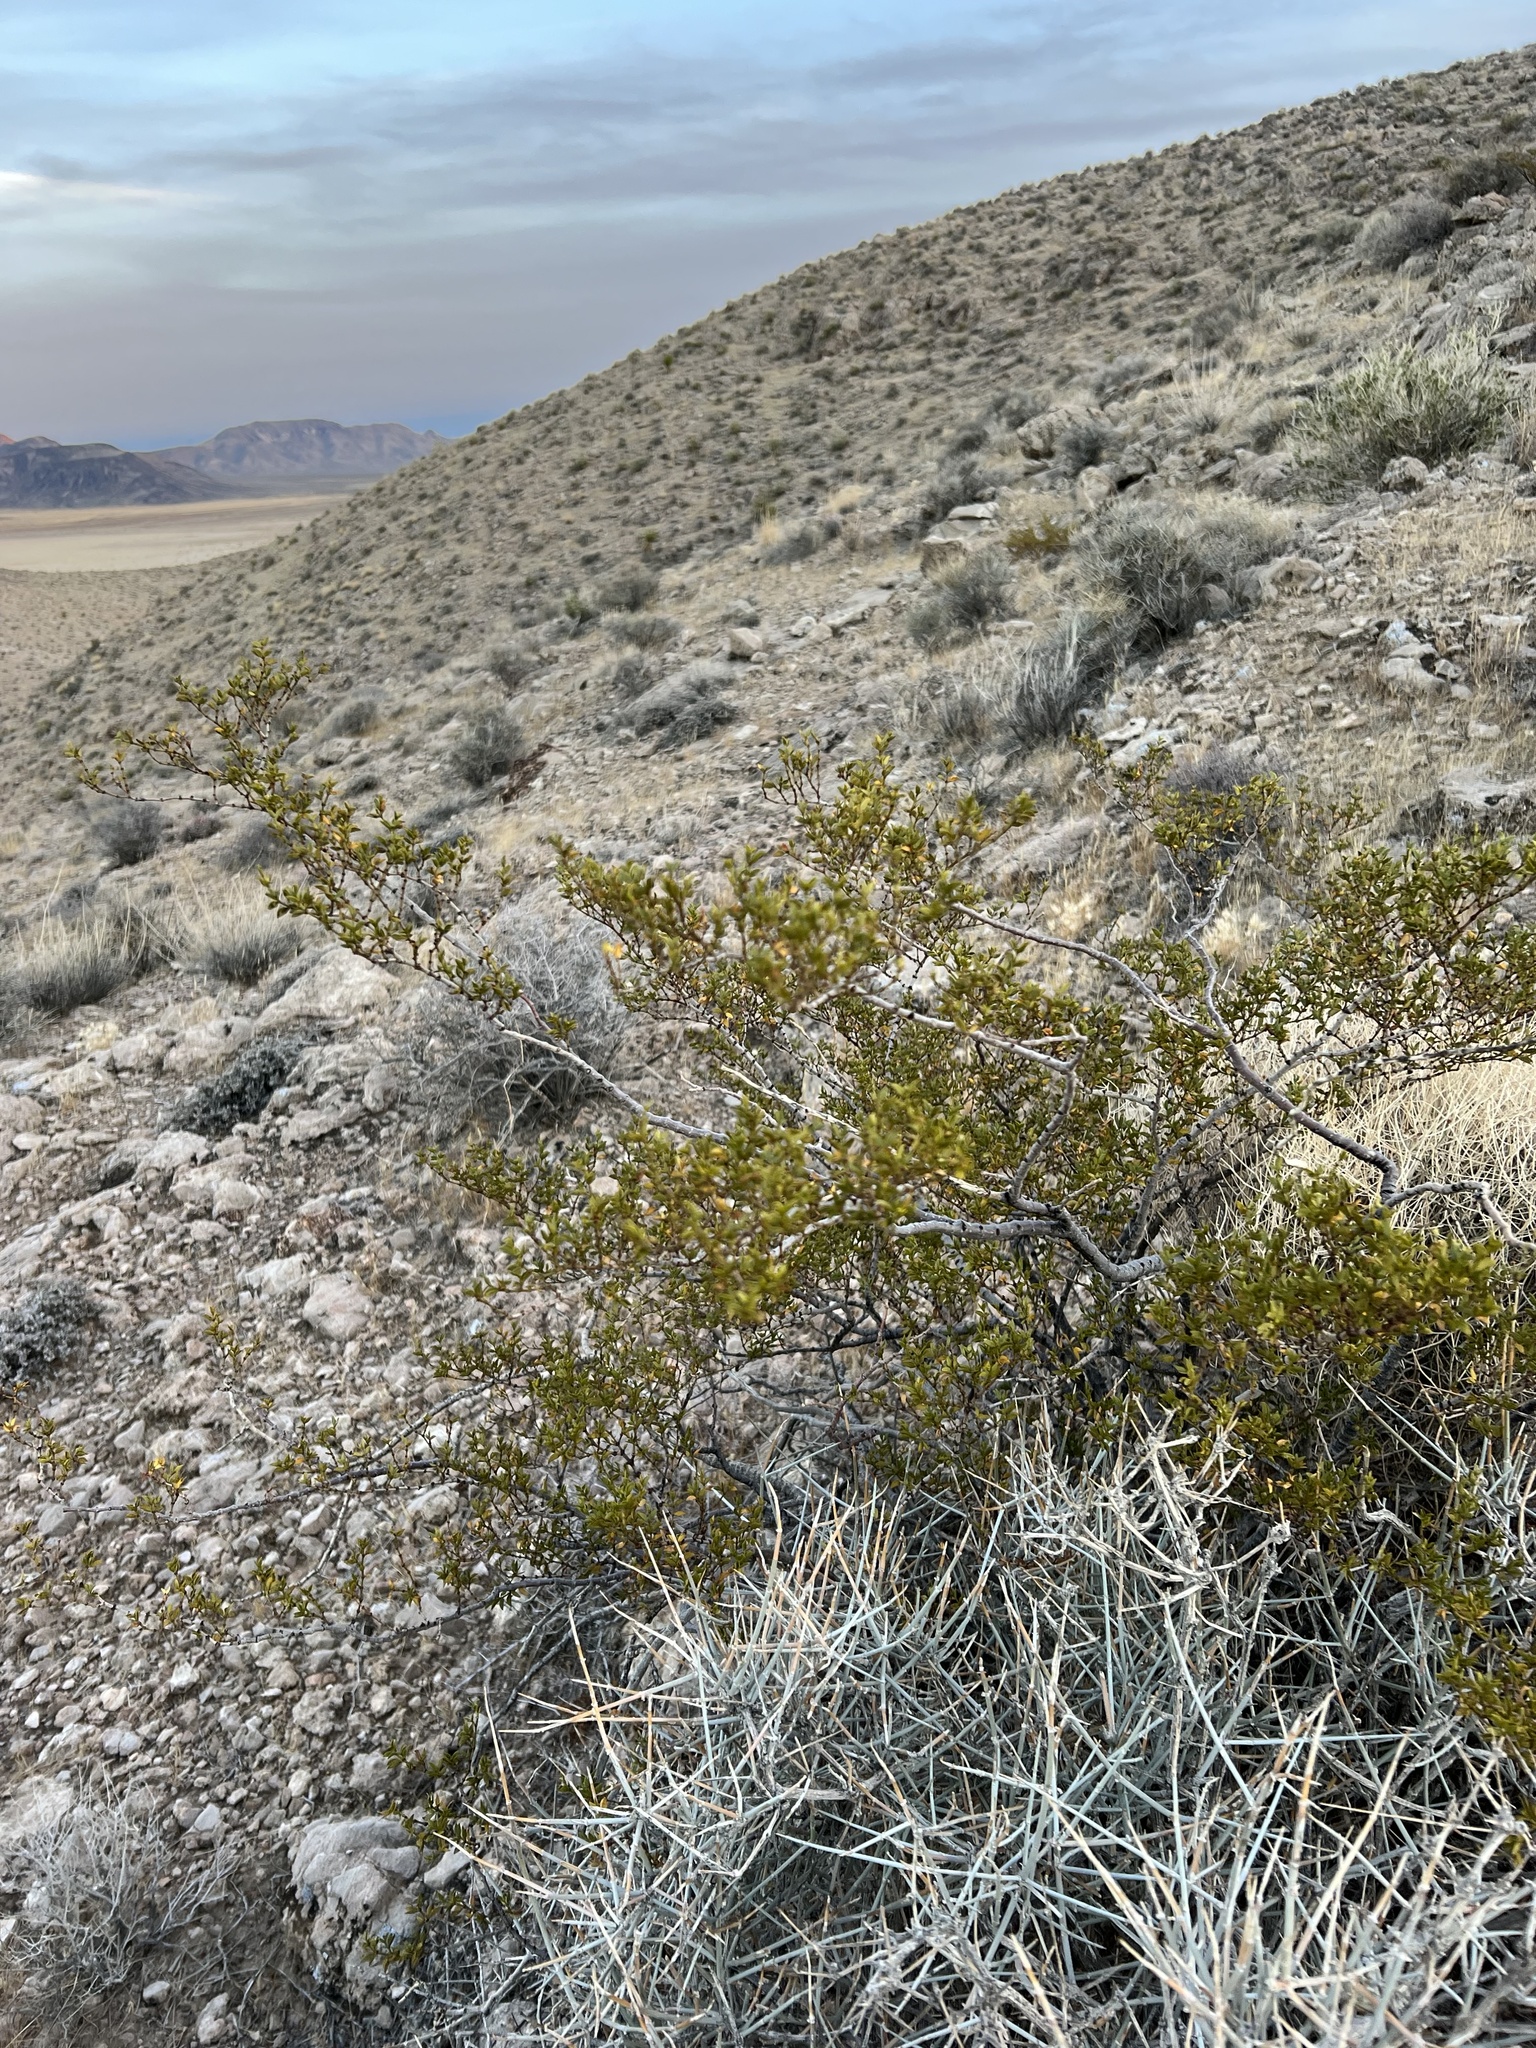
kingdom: Plantae
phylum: Tracheophyta
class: Magnoliopsida
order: Zygophyllales
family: Zygophyllaceae
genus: Larrea
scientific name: Larrea tridentata
